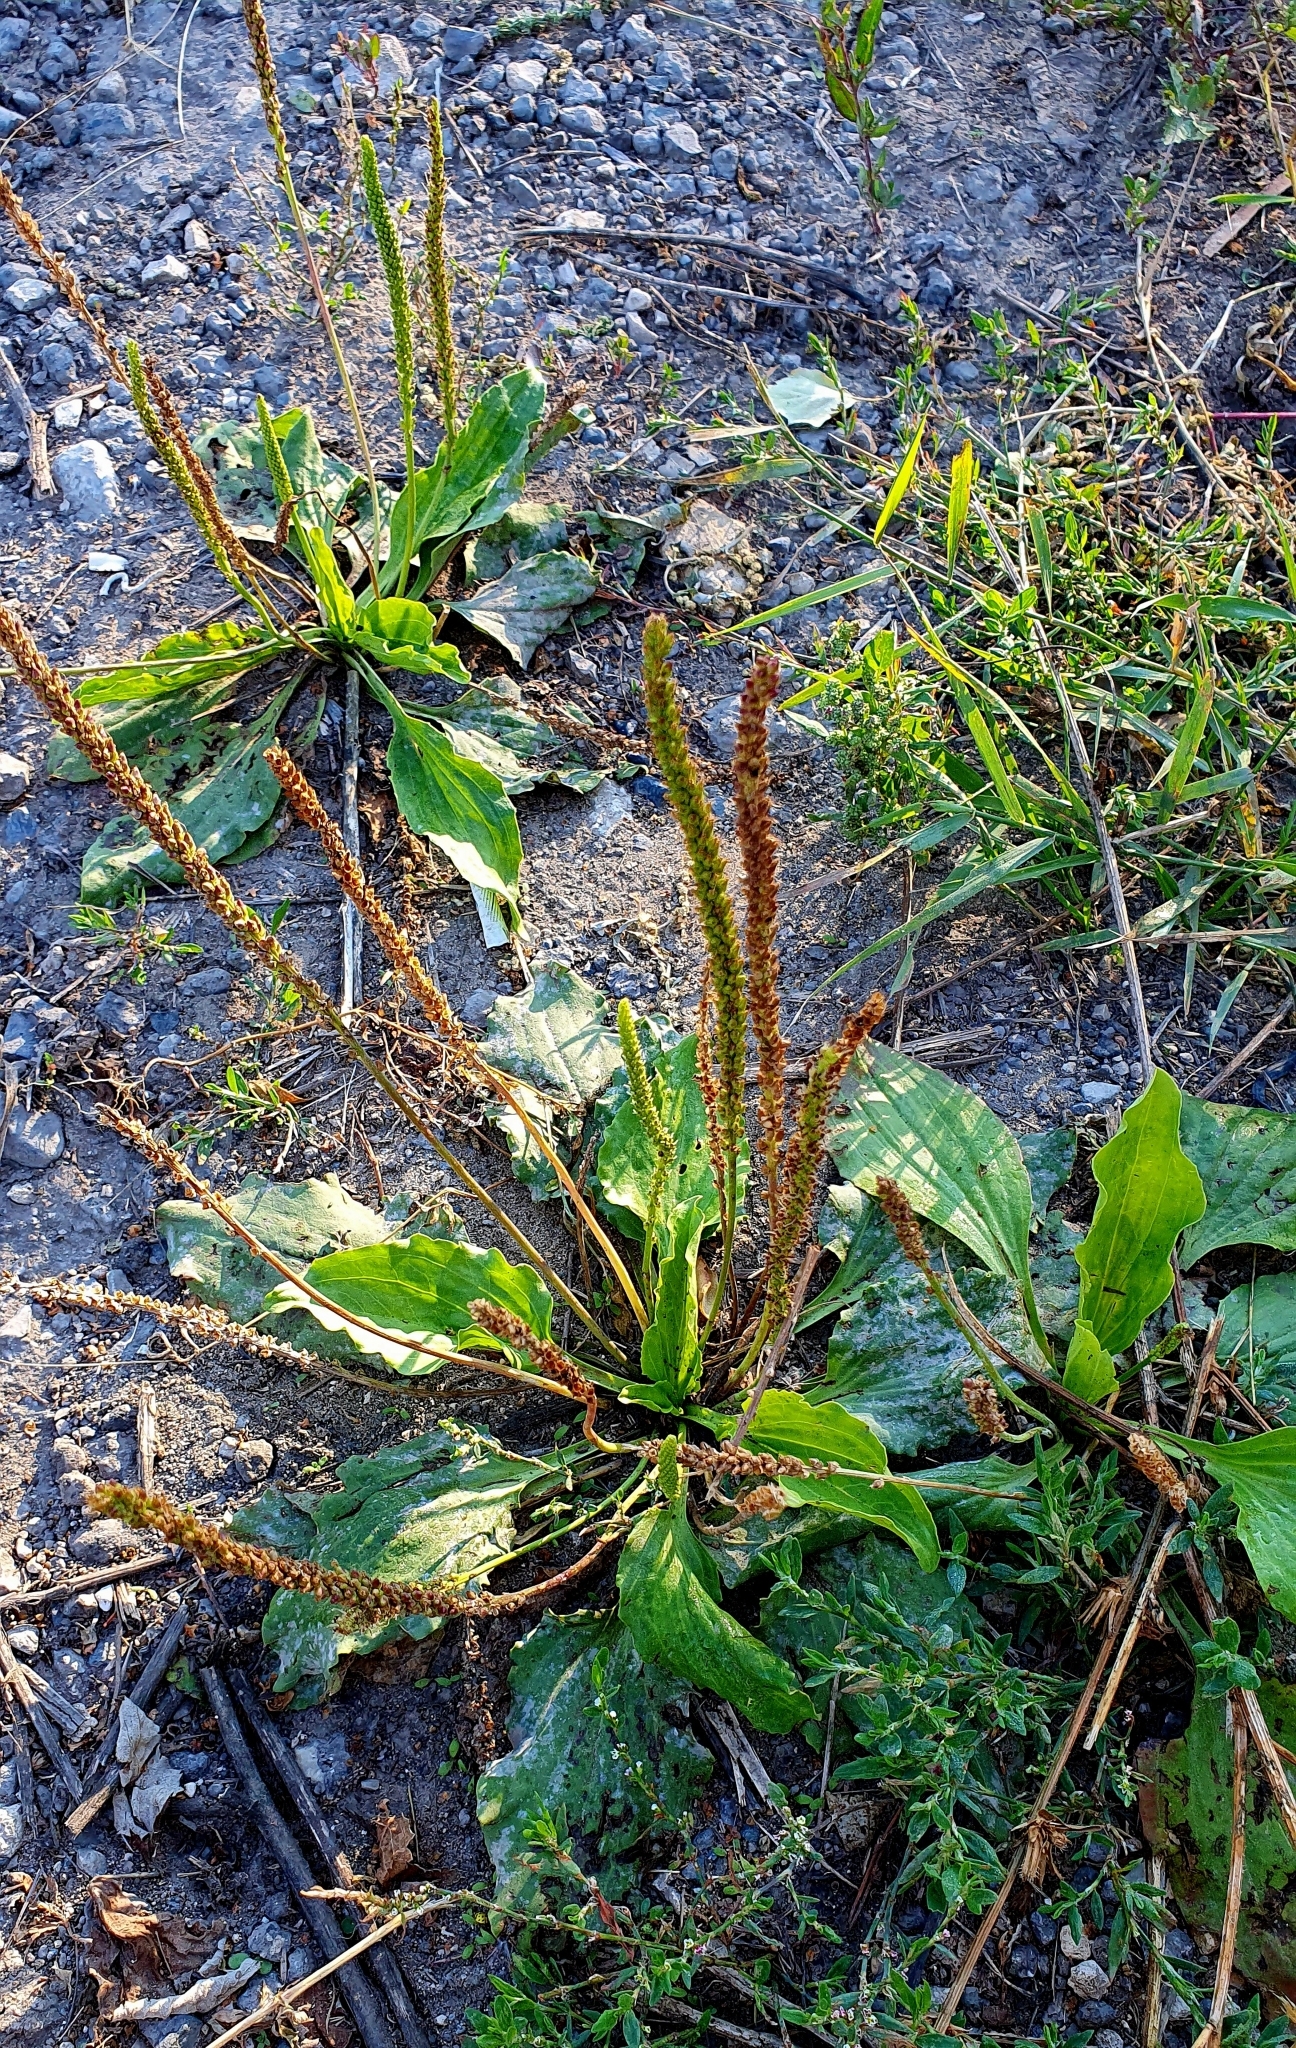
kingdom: Plantae
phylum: Tracheophyta
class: Magnoliopsida
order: Lamiales
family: Plantaginaceae
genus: Plantago
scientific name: Plantago major
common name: Common plantain
